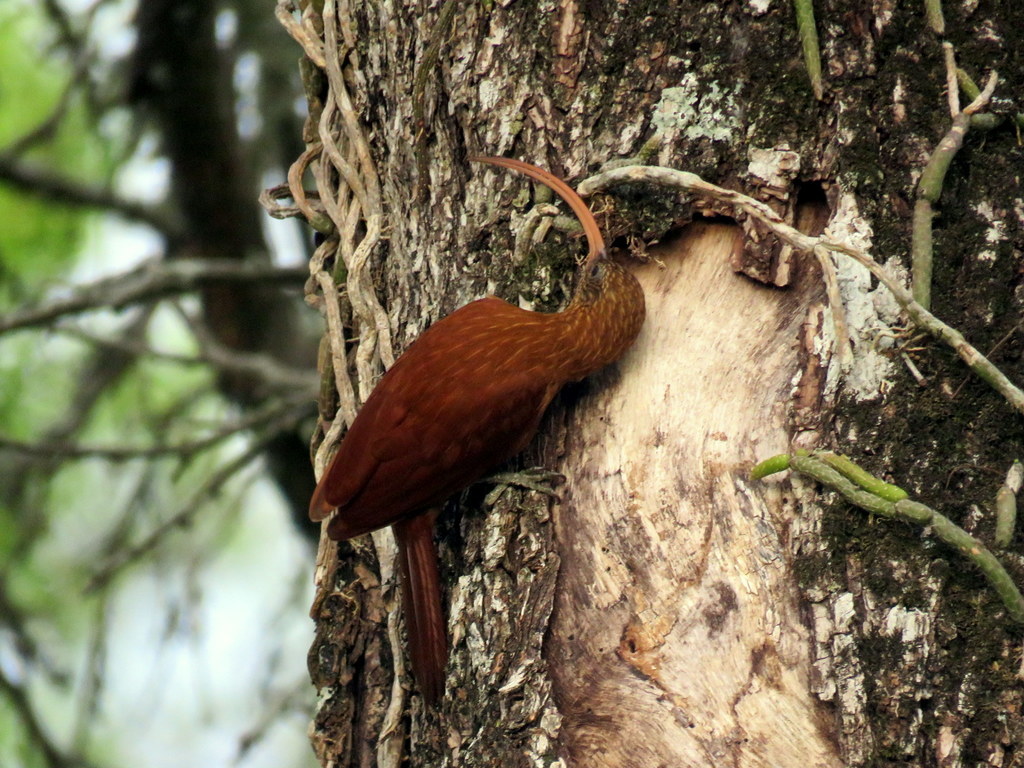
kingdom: Animalia
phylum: Chordata
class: Aves
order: Passeriformes
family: Furnariidae
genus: Campylorhamphus
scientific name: Campylorhamphus trochilirostris
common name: Red-billed scythebill
